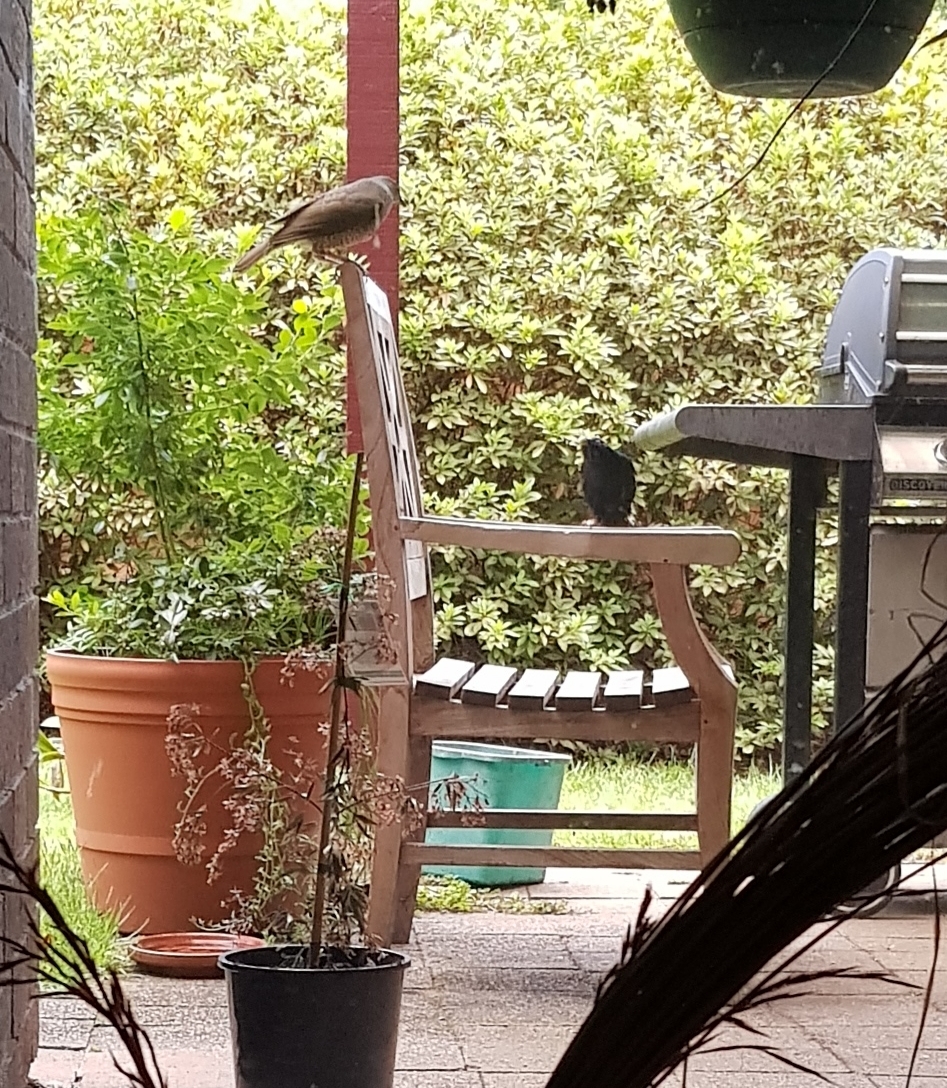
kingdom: Animalia
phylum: Chordata
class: Aves
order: Passeriformes
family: Ptilonorhynchidae
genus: Ptilonorhynchus
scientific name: Ptilonorhynchus violaceus
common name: Satin bowerbird
